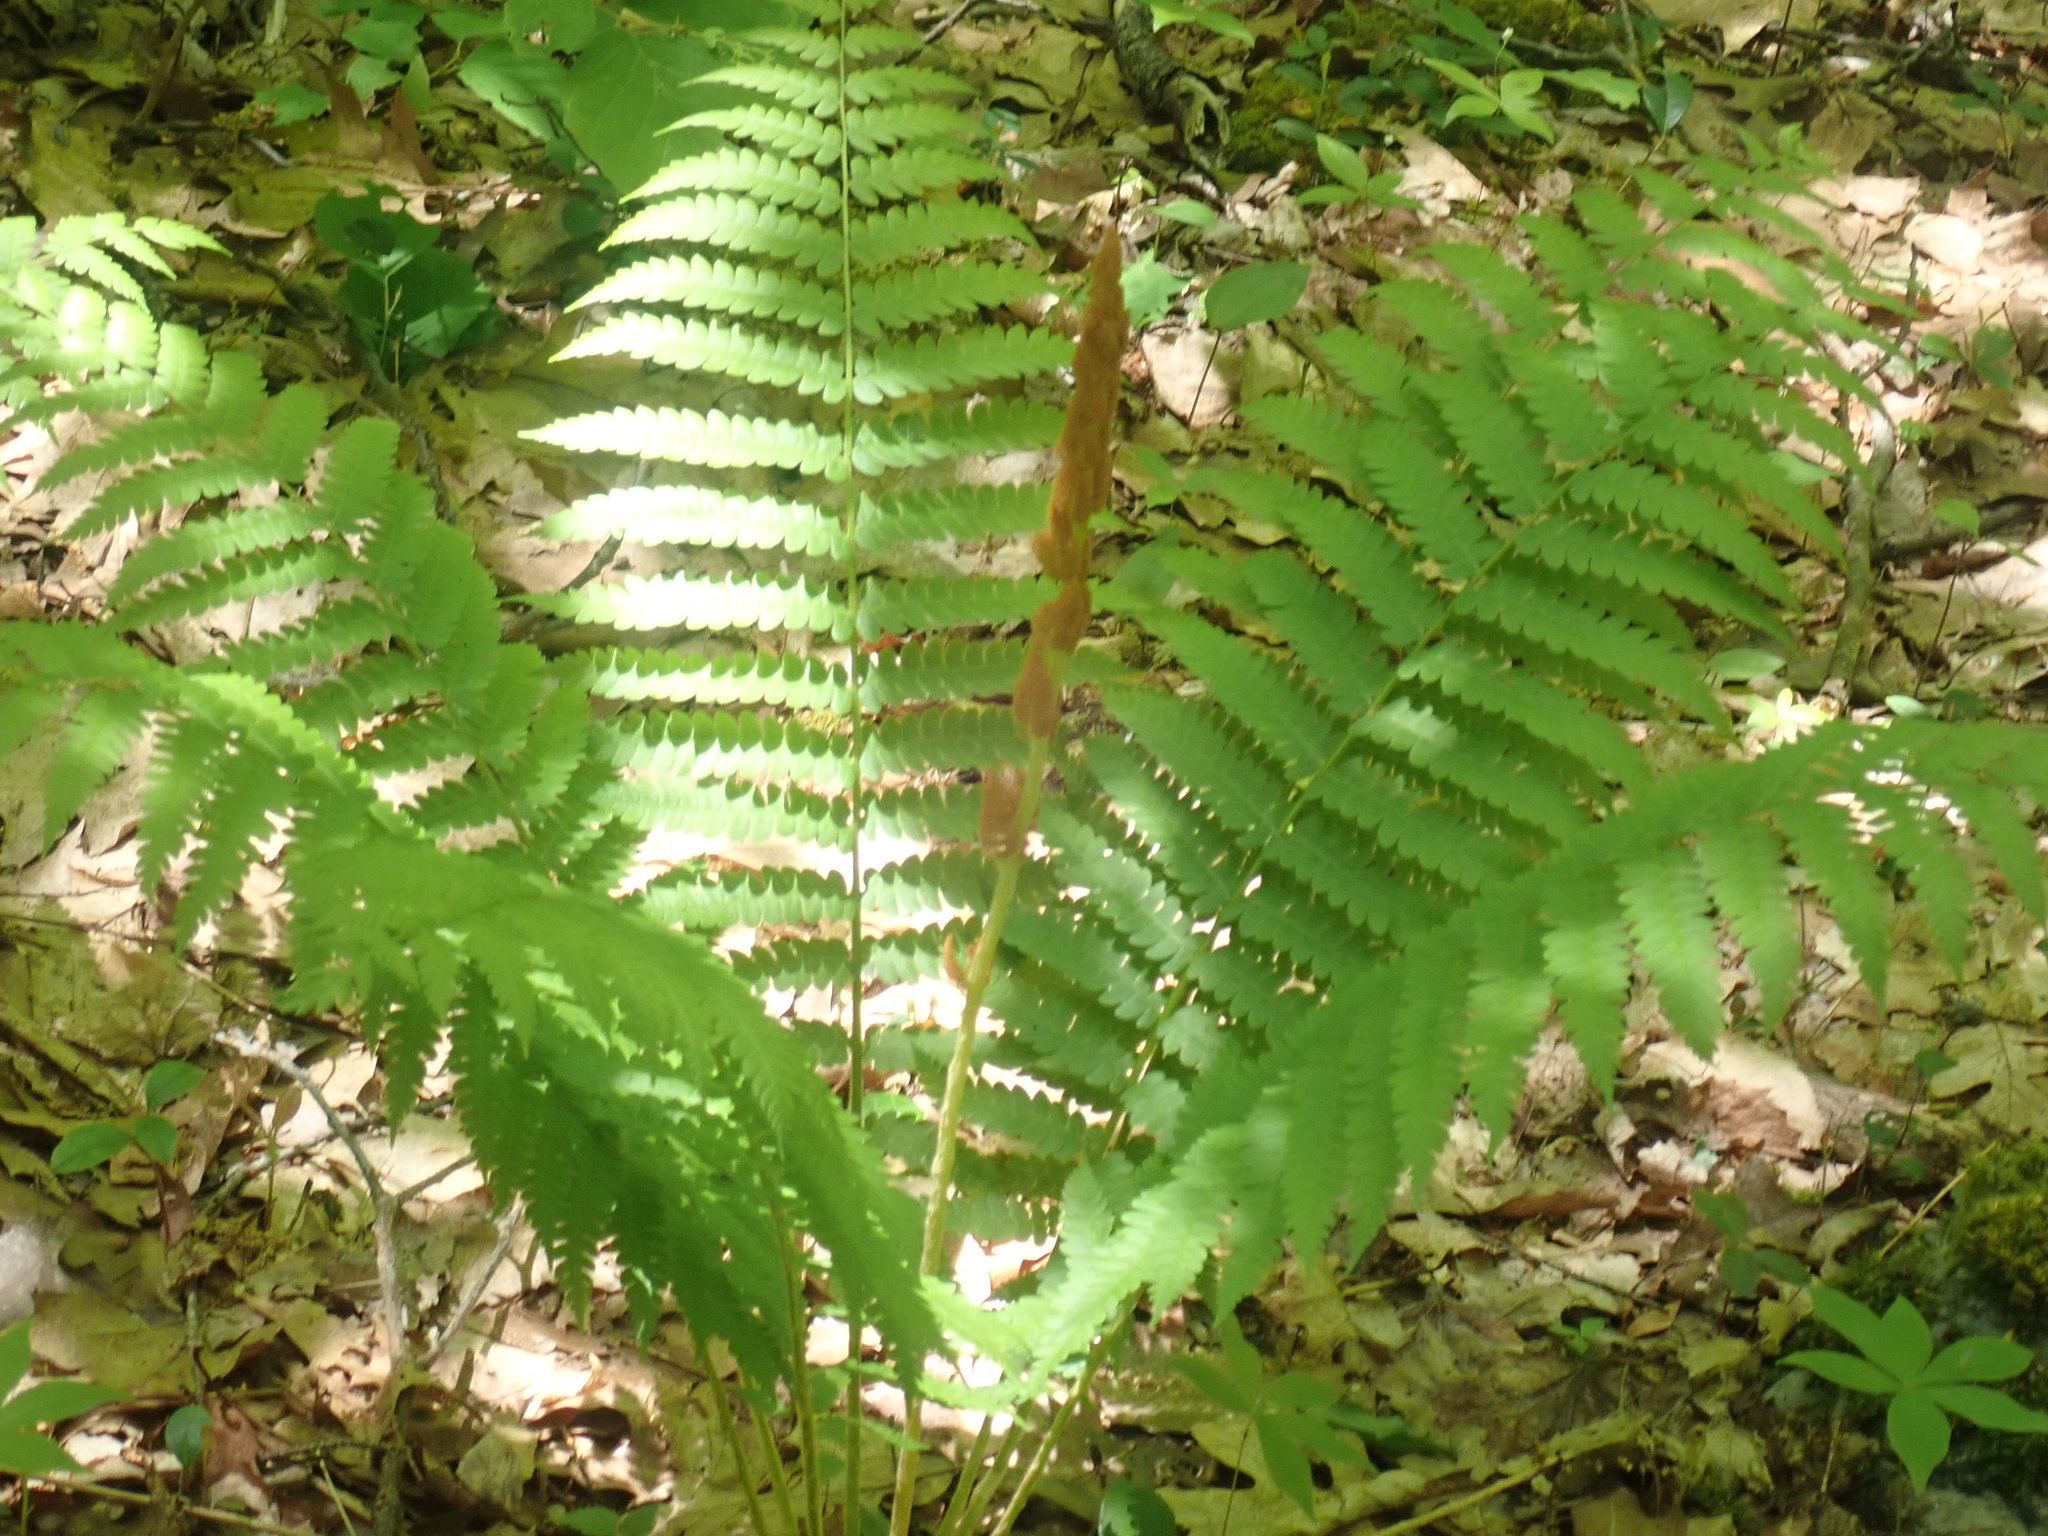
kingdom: Plantae
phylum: Tracheophyta
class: Polypodiopsida
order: Osmundales
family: Osmundaceae
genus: Osmundastrum
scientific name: Osmundastrum cinnamomeum
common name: Cinnamon fern
